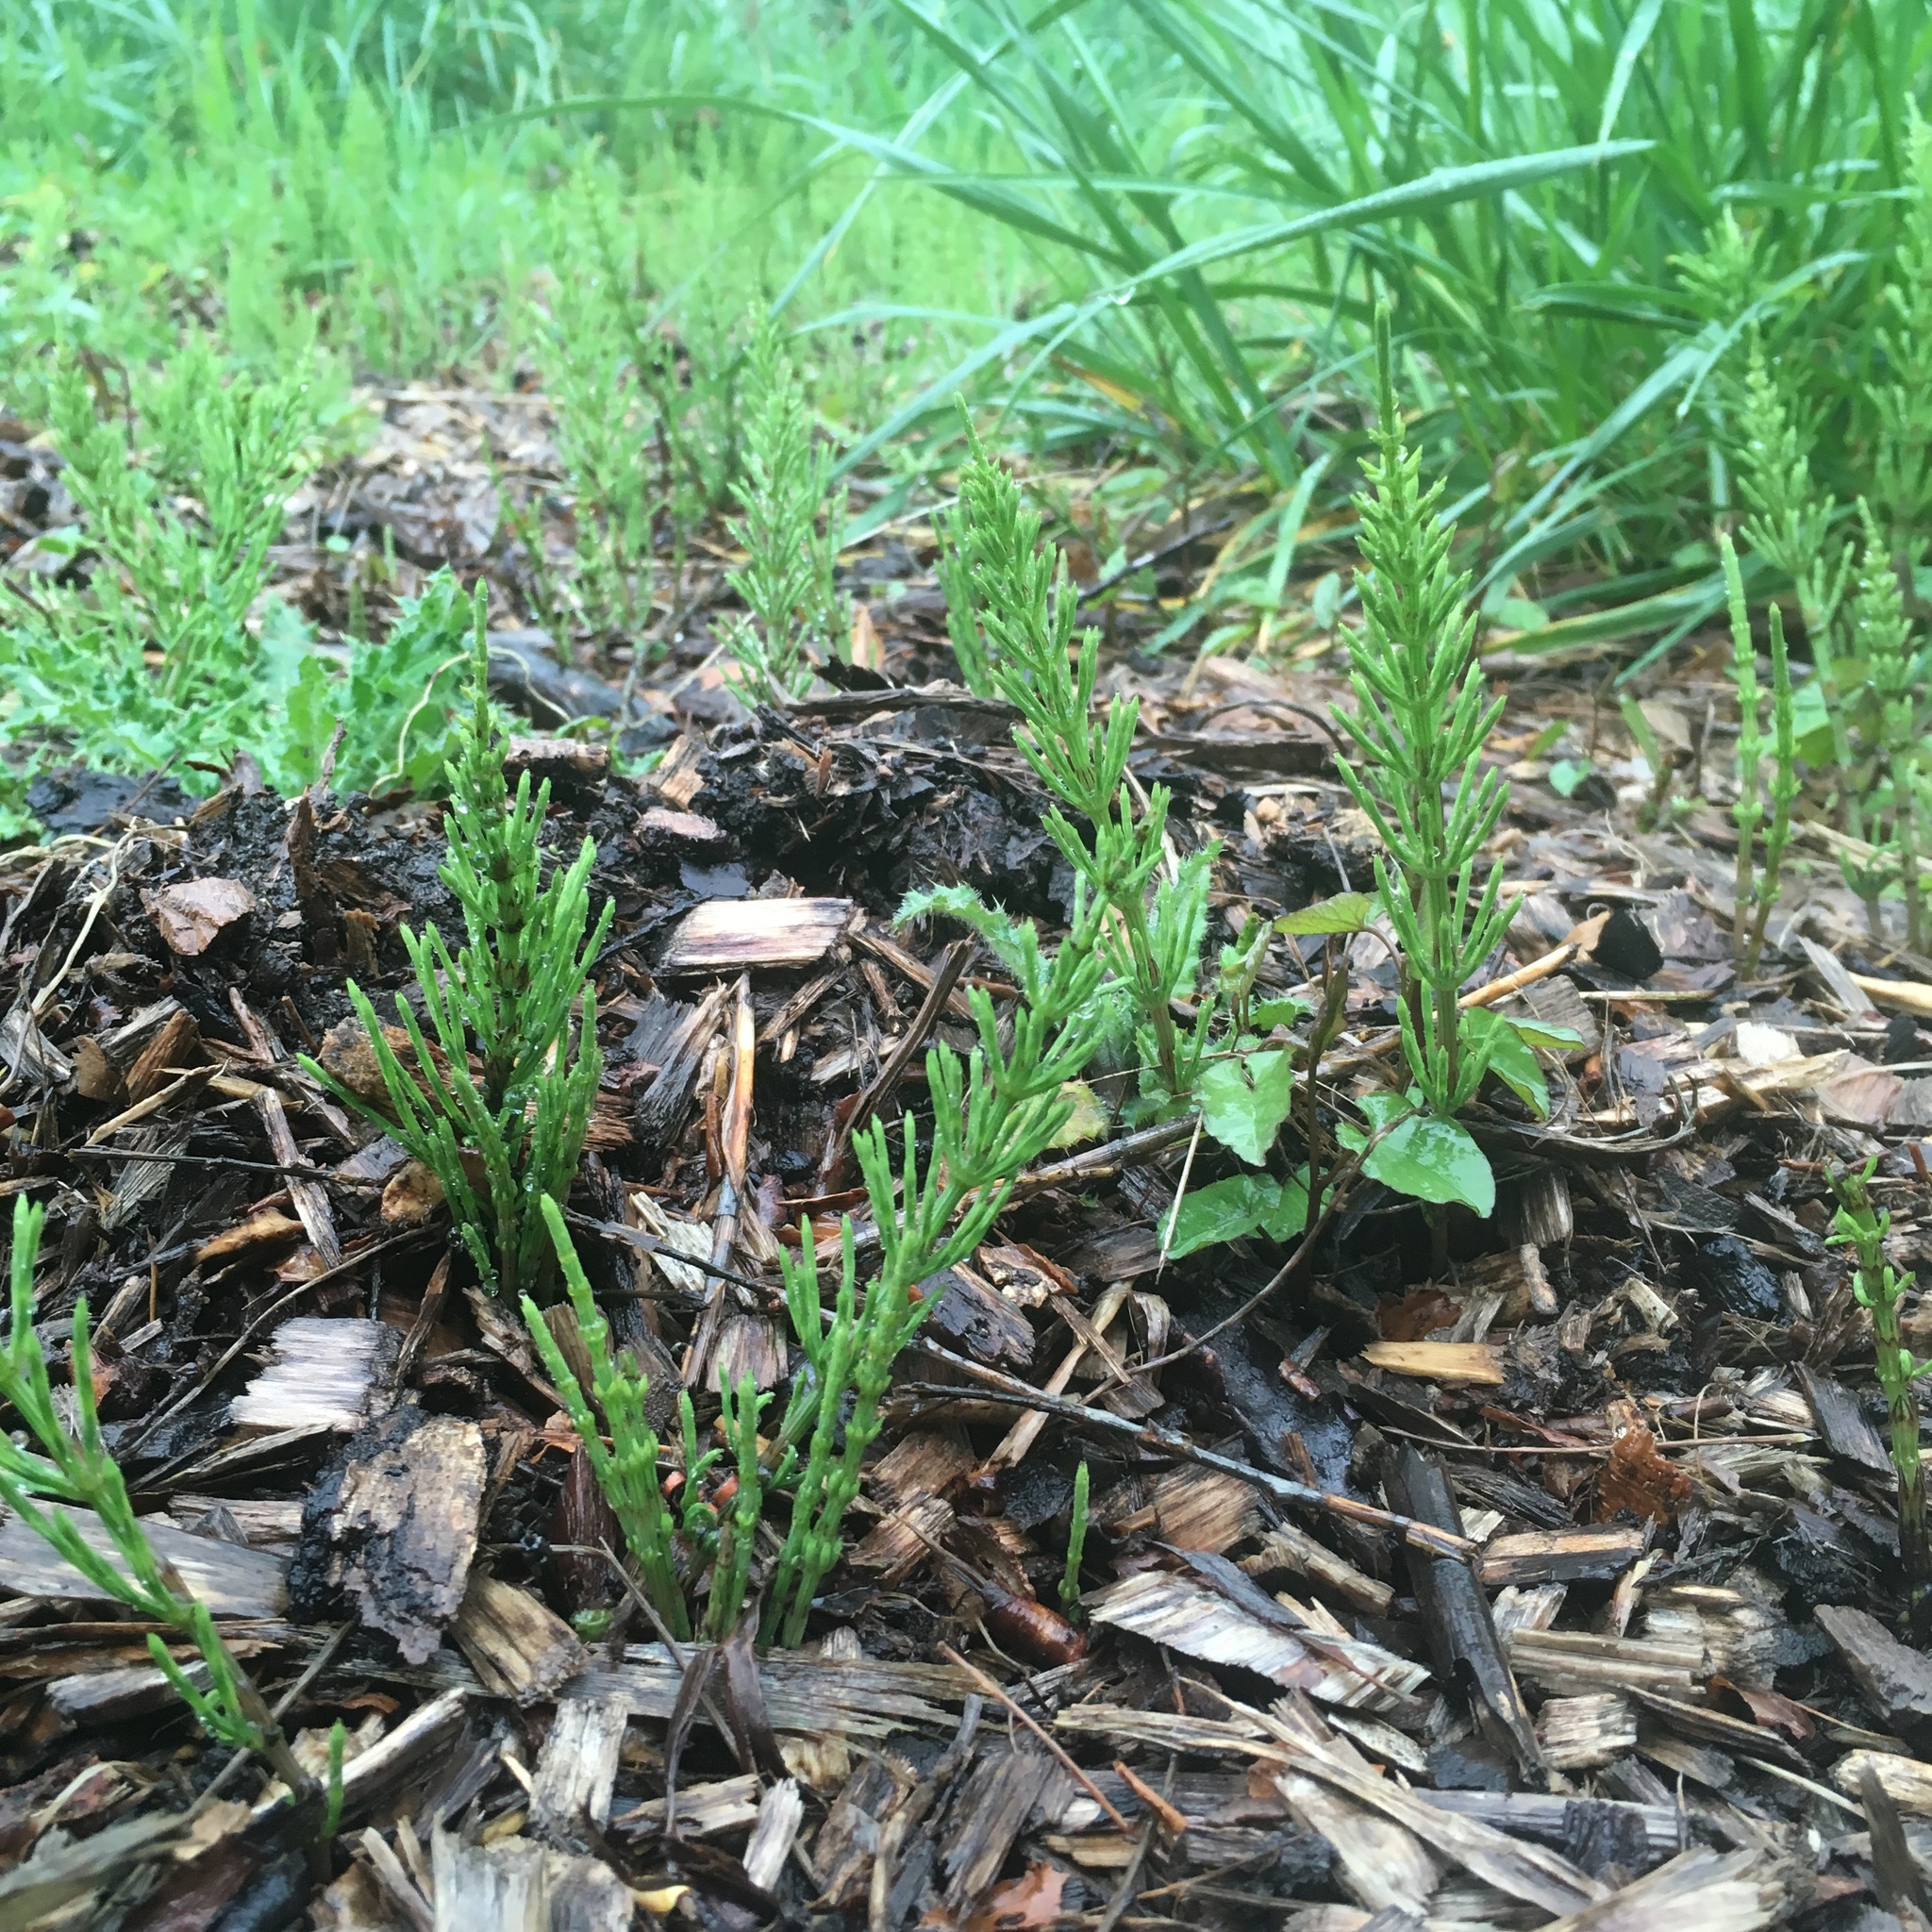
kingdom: Plantae
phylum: Tracheophyta
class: Polypodiopsida
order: Equisetales
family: Equisetaceae
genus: Equisetum
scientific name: Equisetum arvense
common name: Field horsetail
